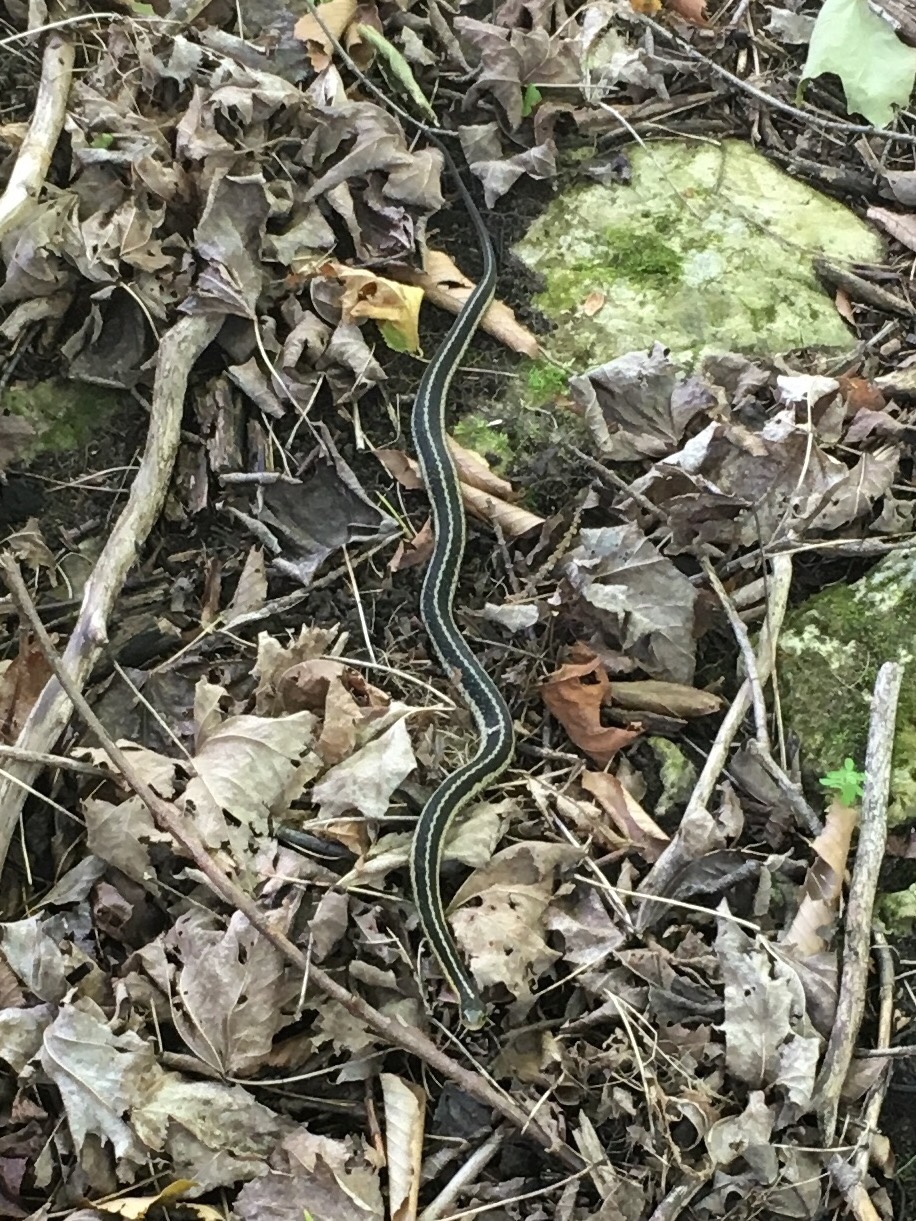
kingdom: Animalia
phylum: Chordata
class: Squamata
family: Colubridae
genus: Thamnophis
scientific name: Thamnophis sirtalis
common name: Common garter snake
